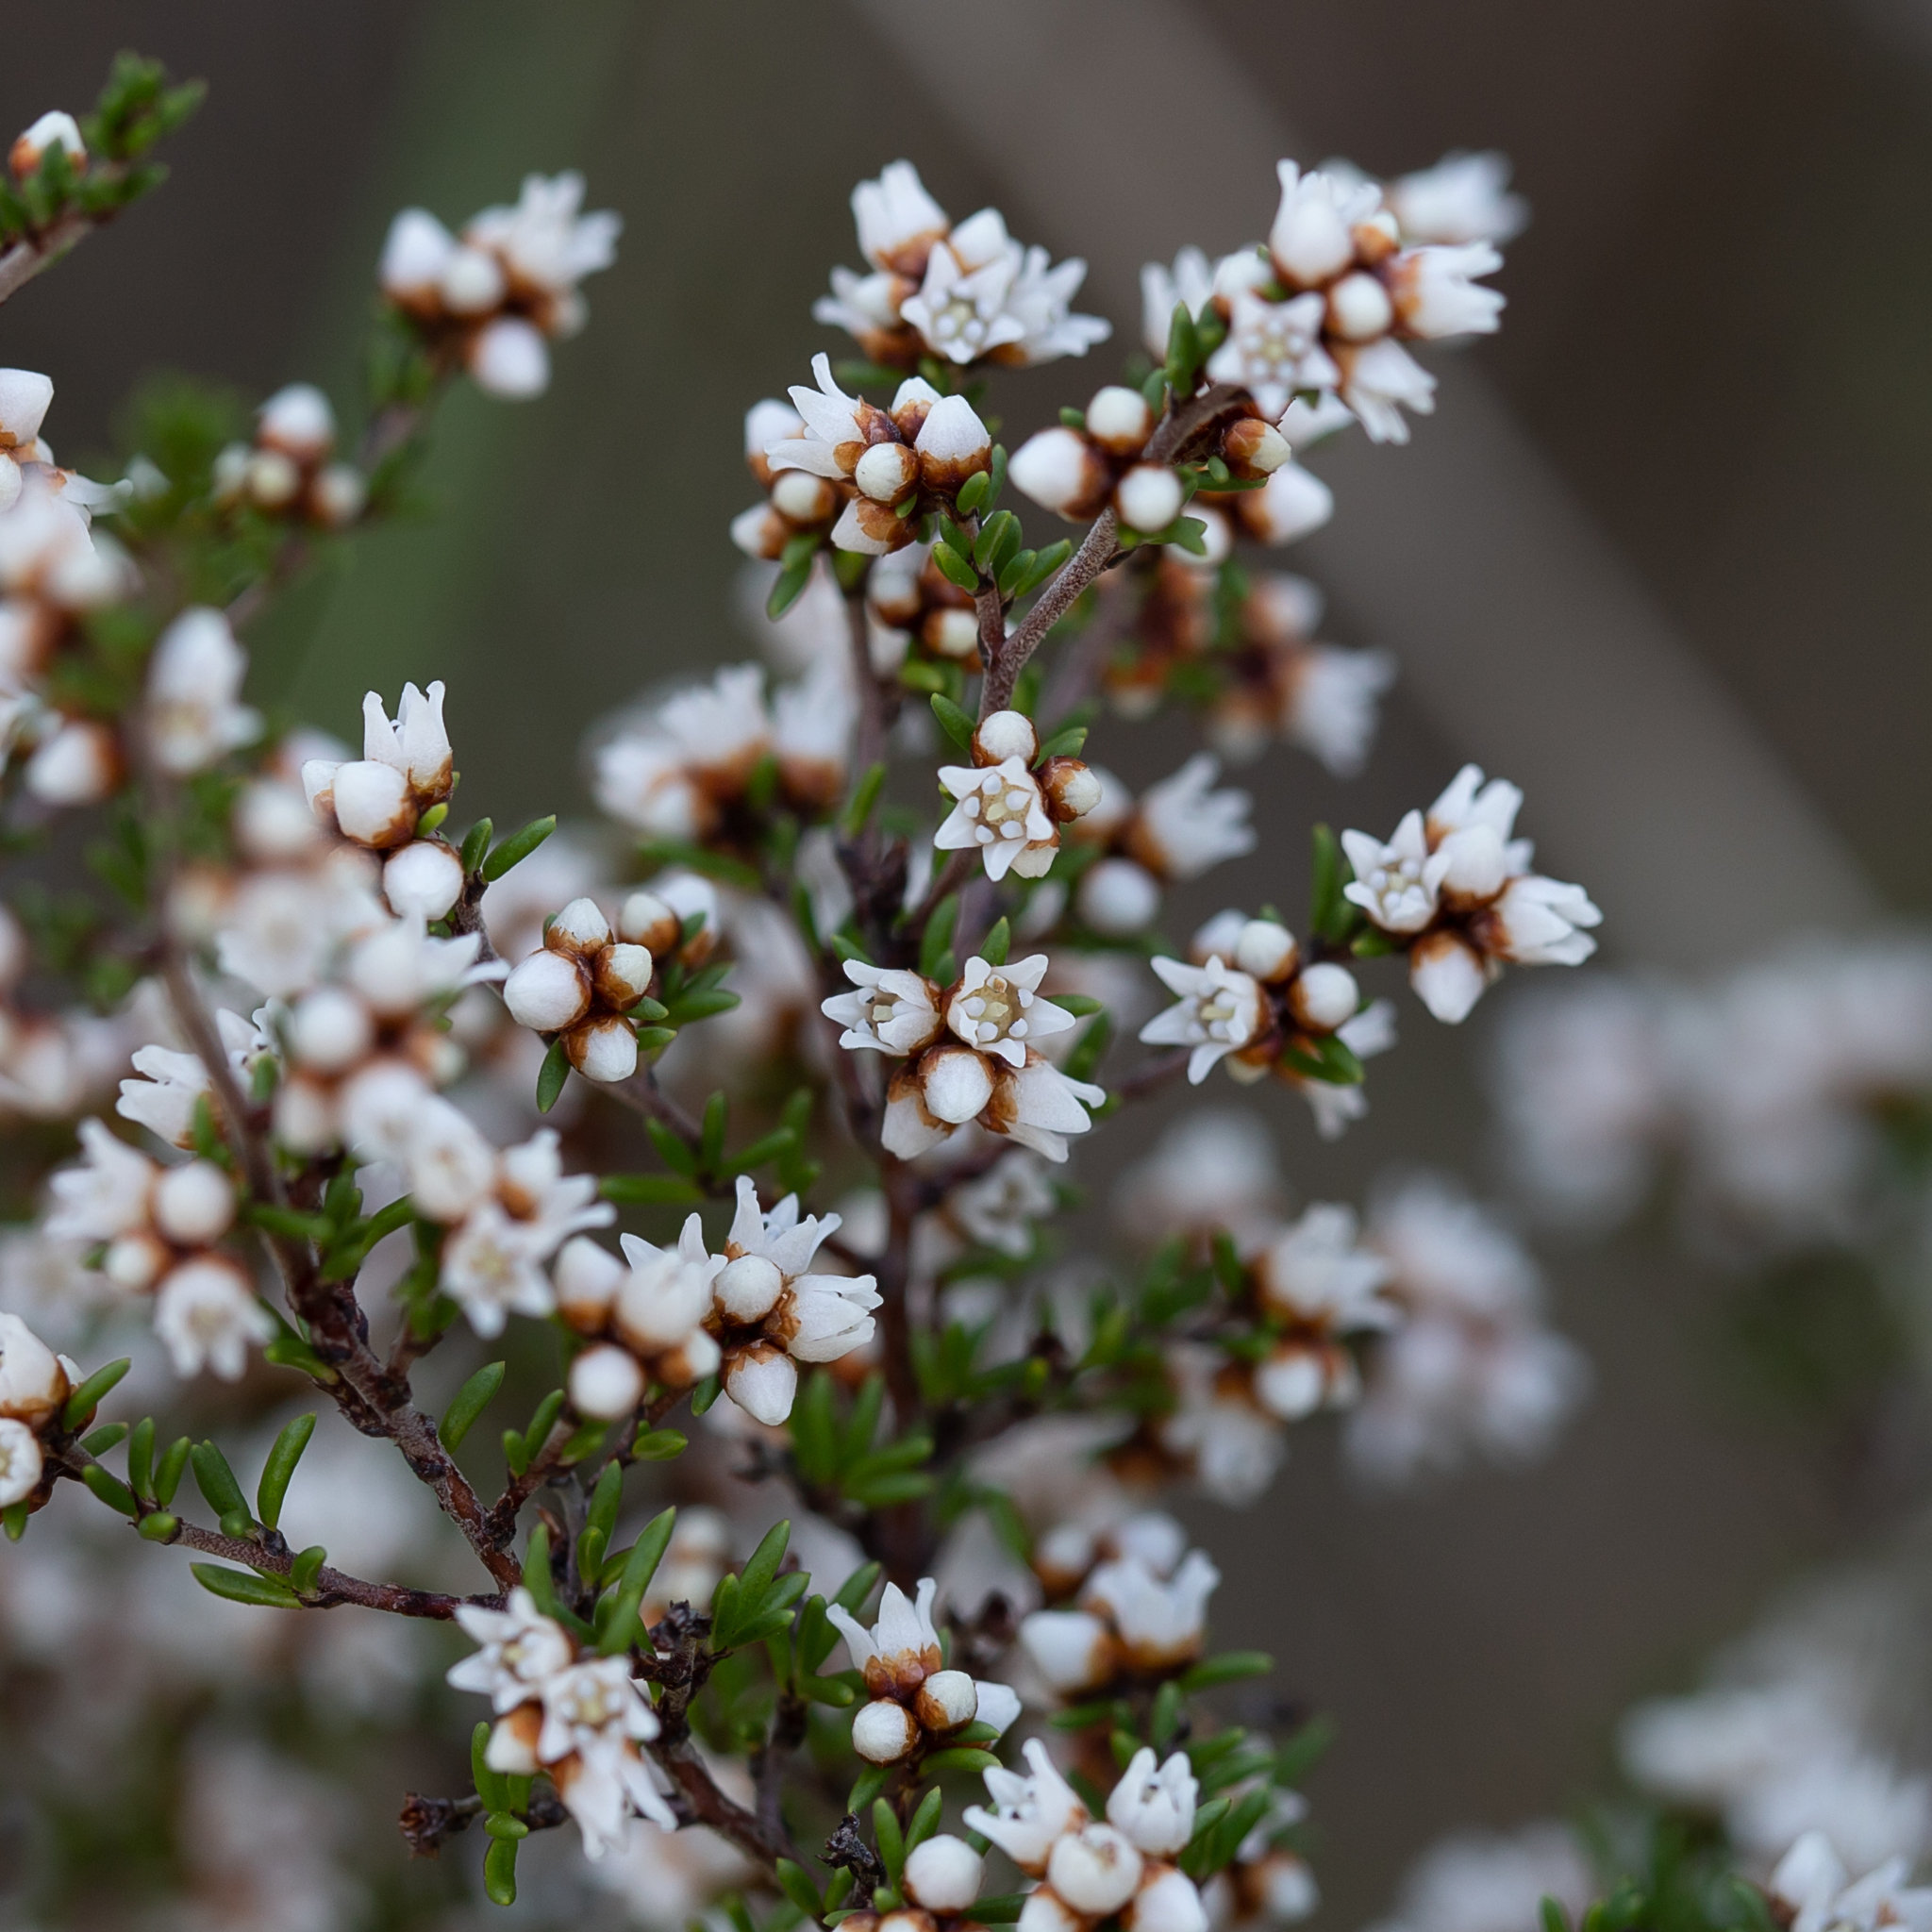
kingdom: Plantae
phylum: Tracheophyta
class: Magnoliopsida
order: Rosales
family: Rhamnaceae
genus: Cryptandra
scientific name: Cryptandra tomentosa
